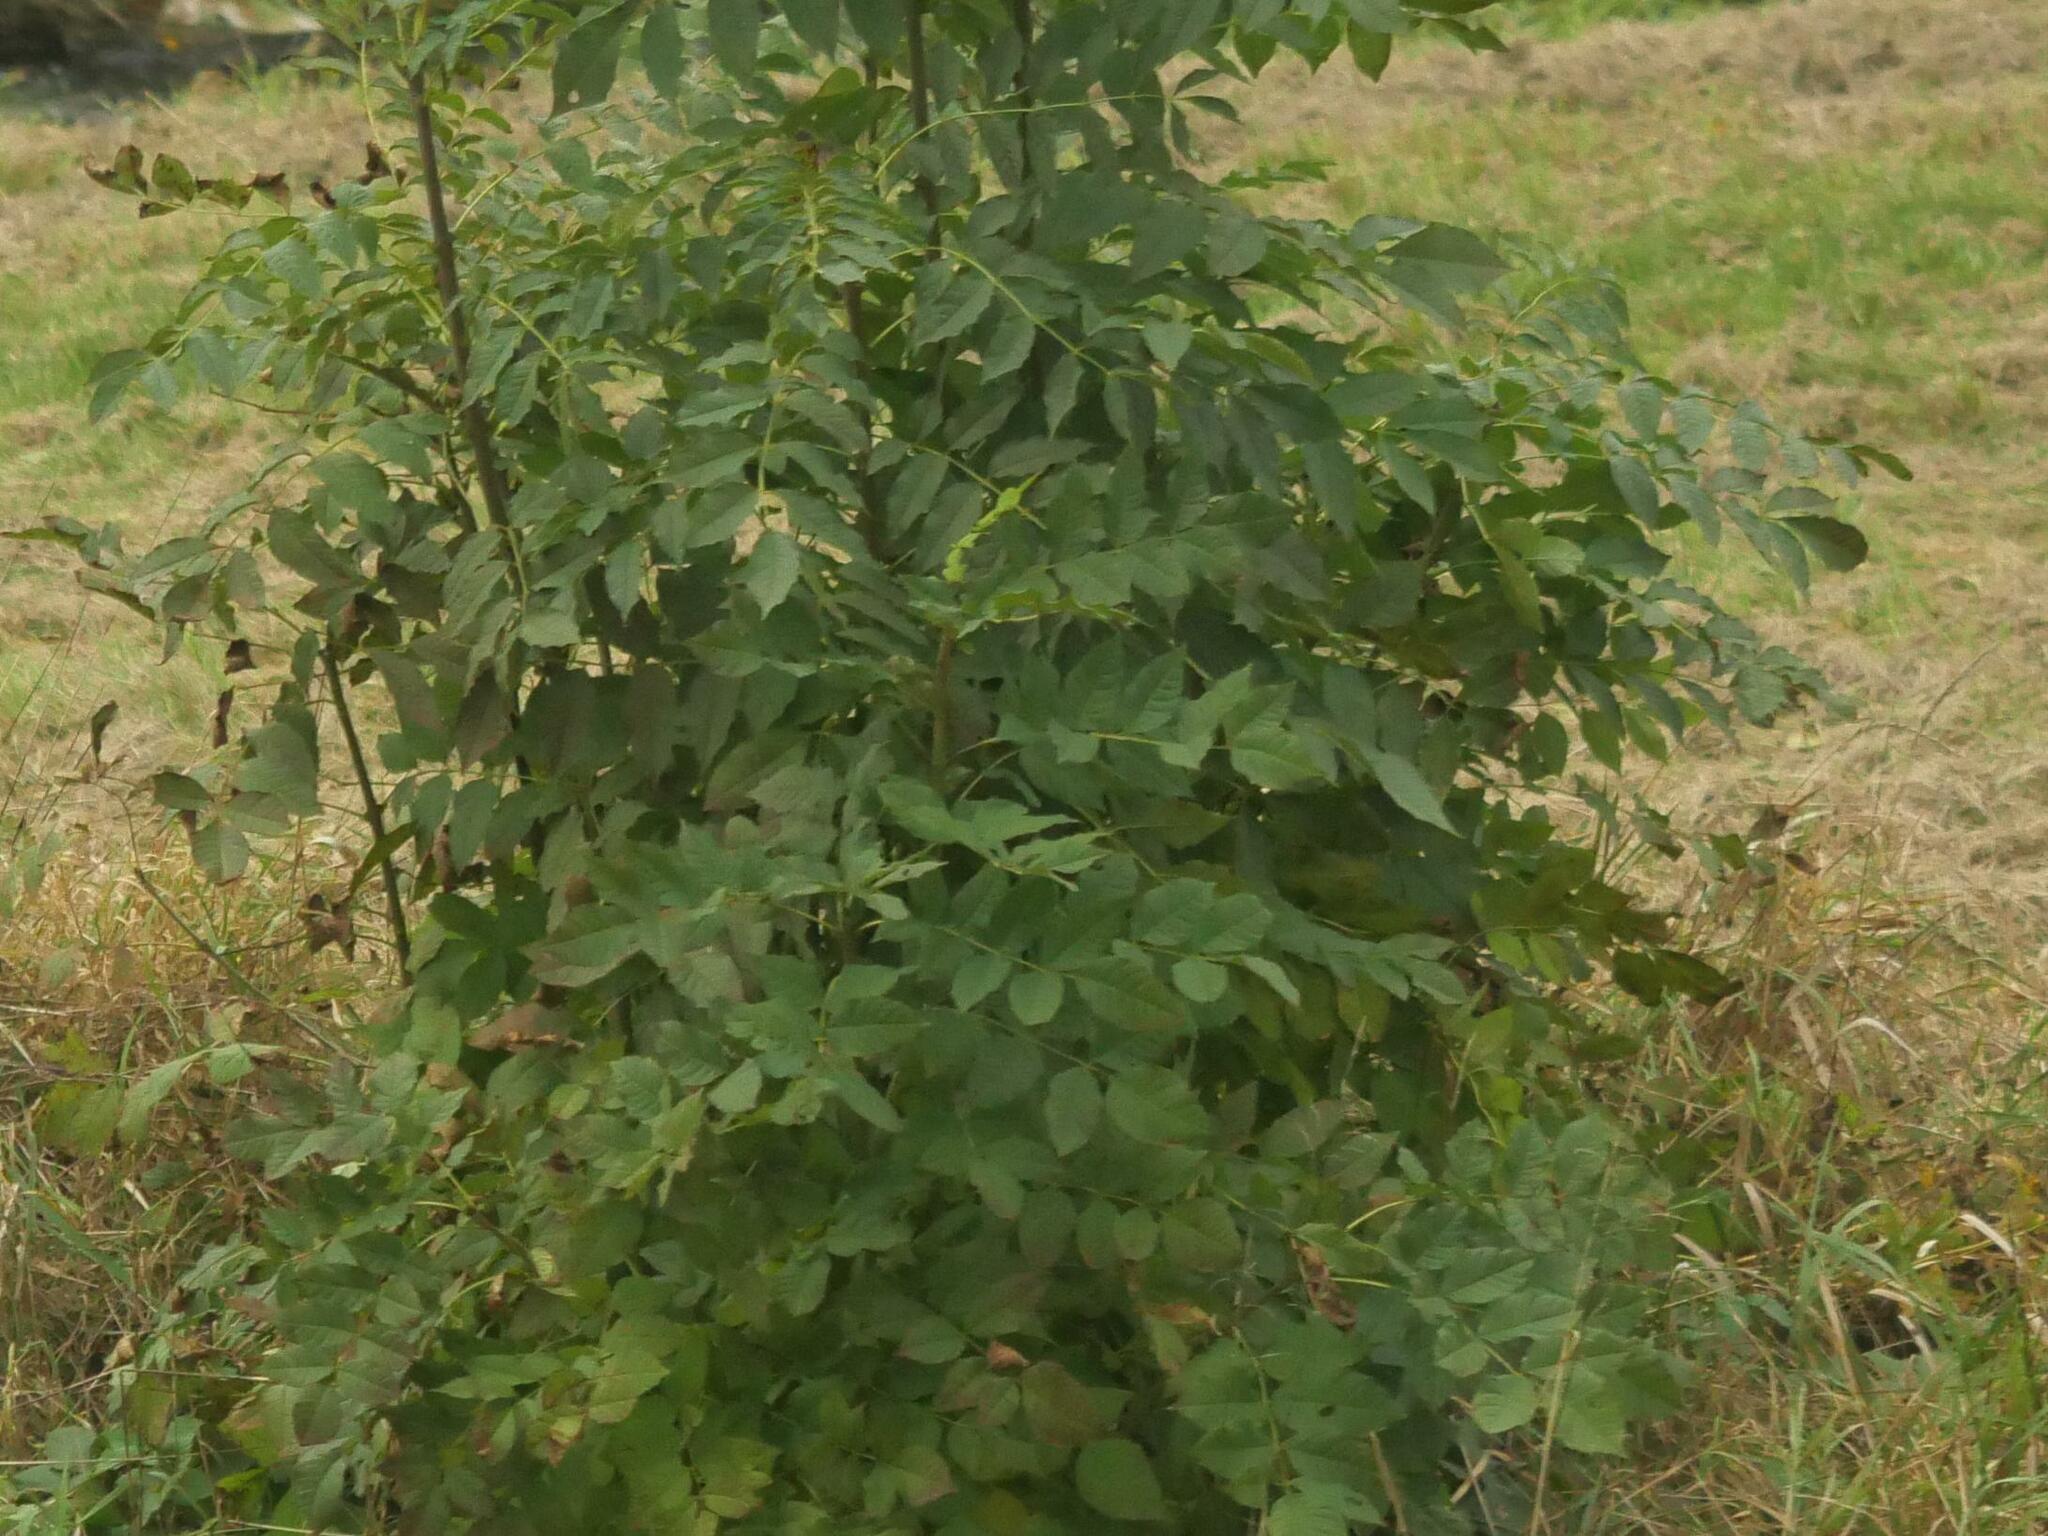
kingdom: Plantae
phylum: Tracheophyta
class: Magnoliopsida
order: Lamiales
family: Oleaceae
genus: Fraxinus
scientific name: Fraxinus excelsior
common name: European ash
